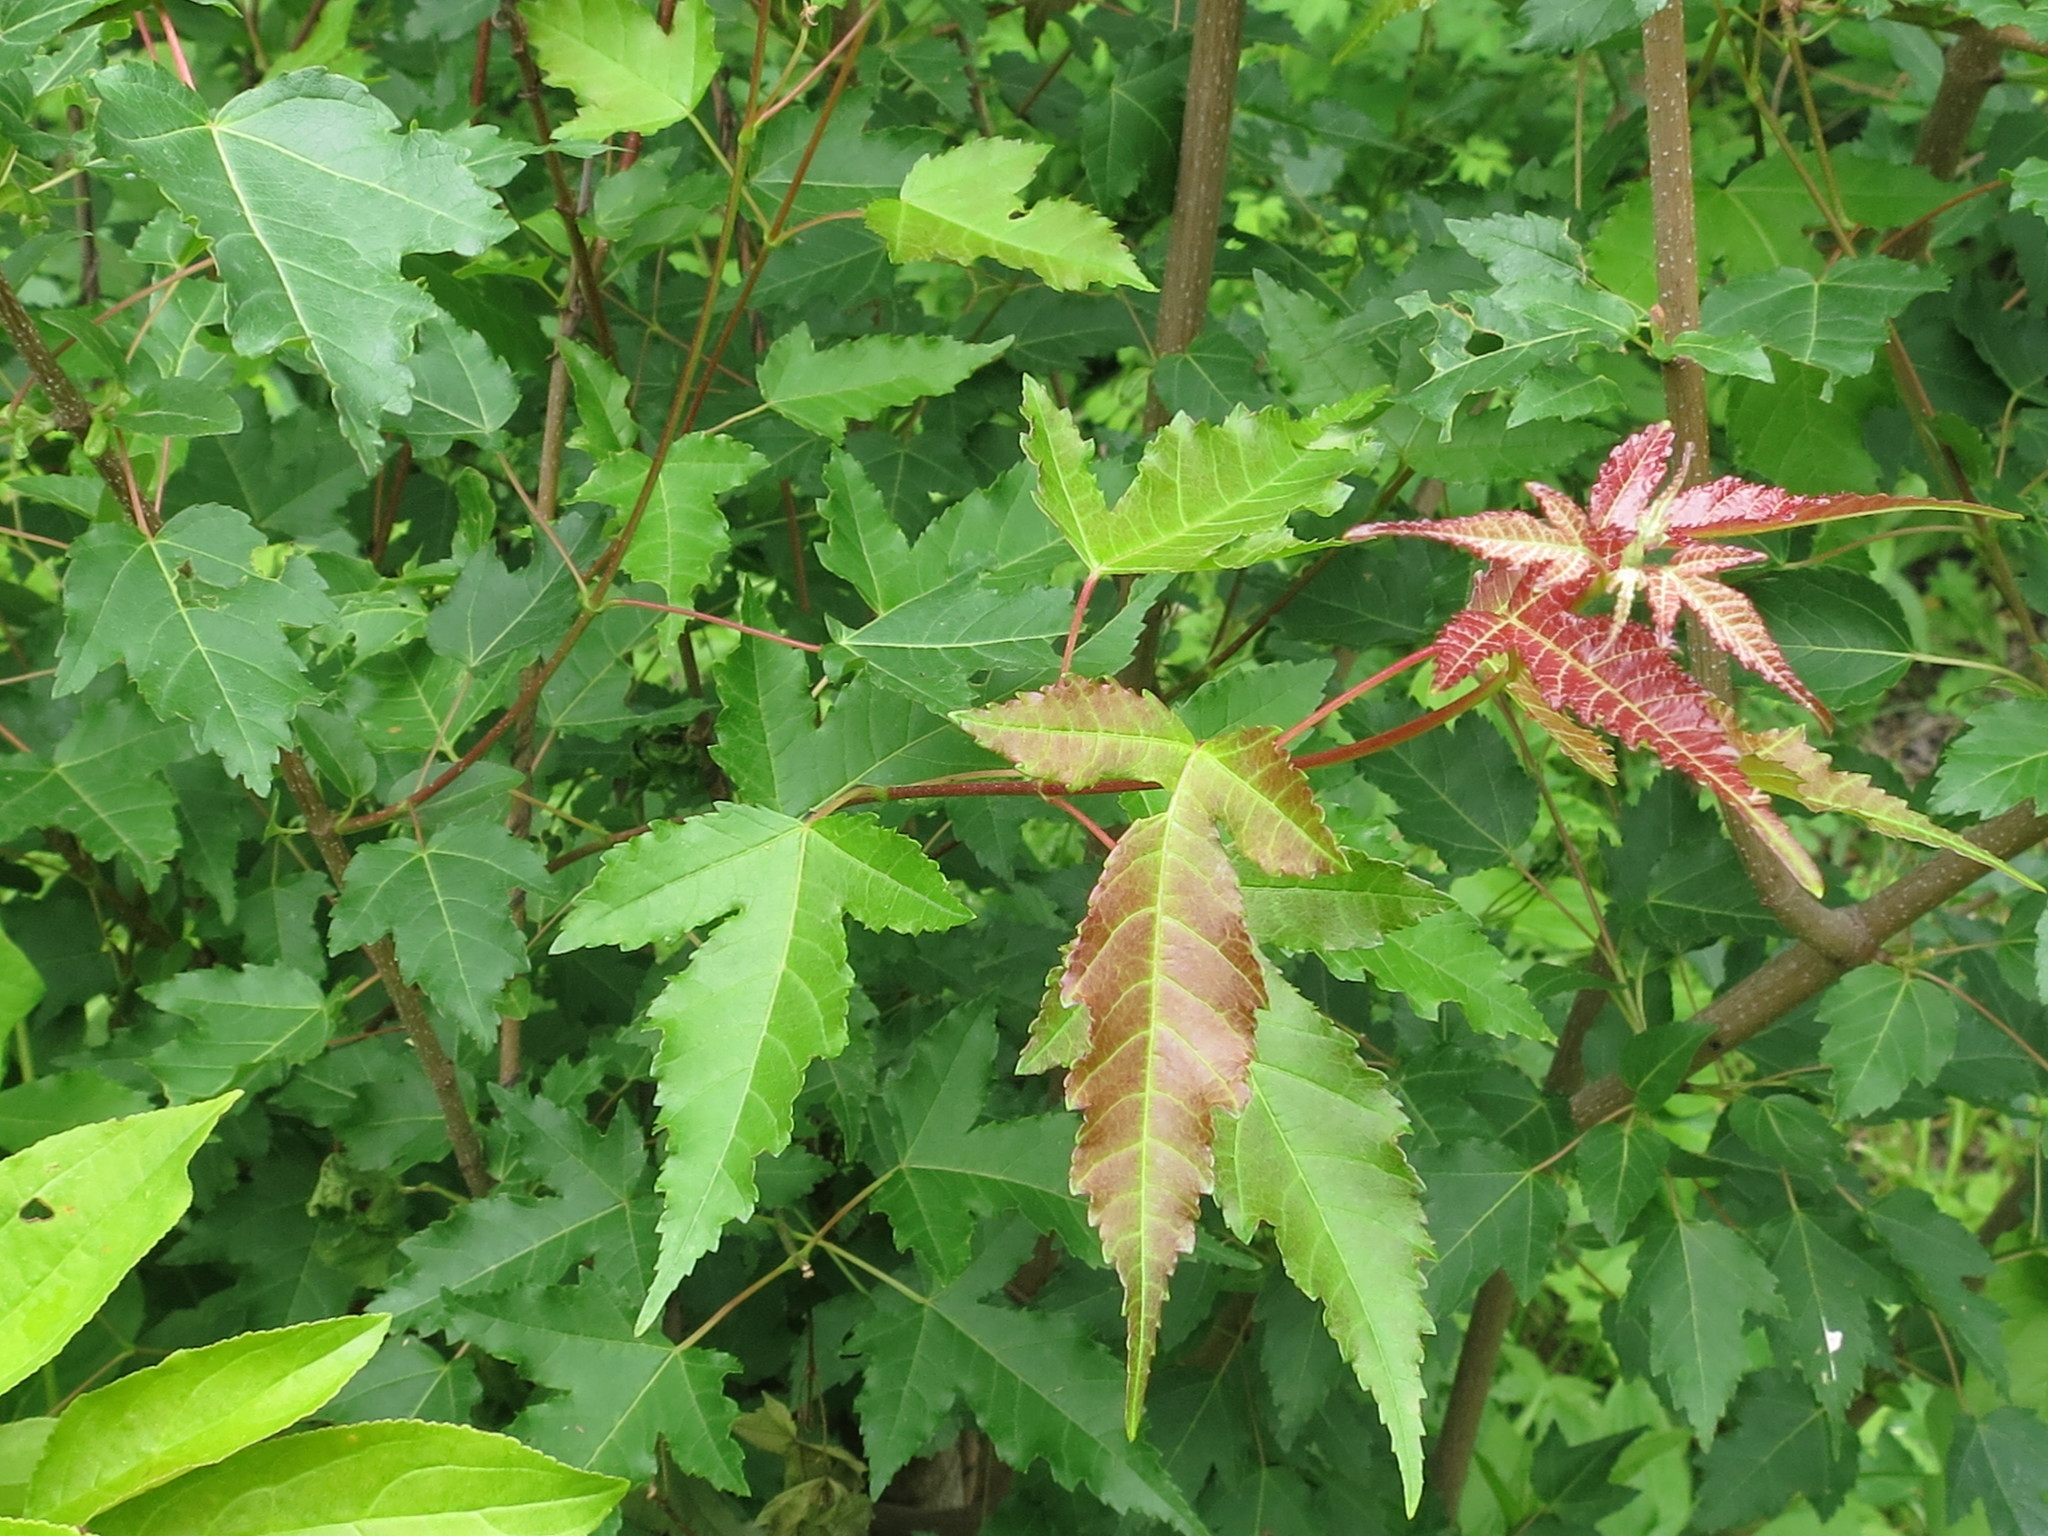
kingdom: Plantae
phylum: Tracheophyta
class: Magnoliopsida
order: Sapindales
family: Sapindaceae
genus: Acer
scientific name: Acer tataricum
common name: Tartar maple
